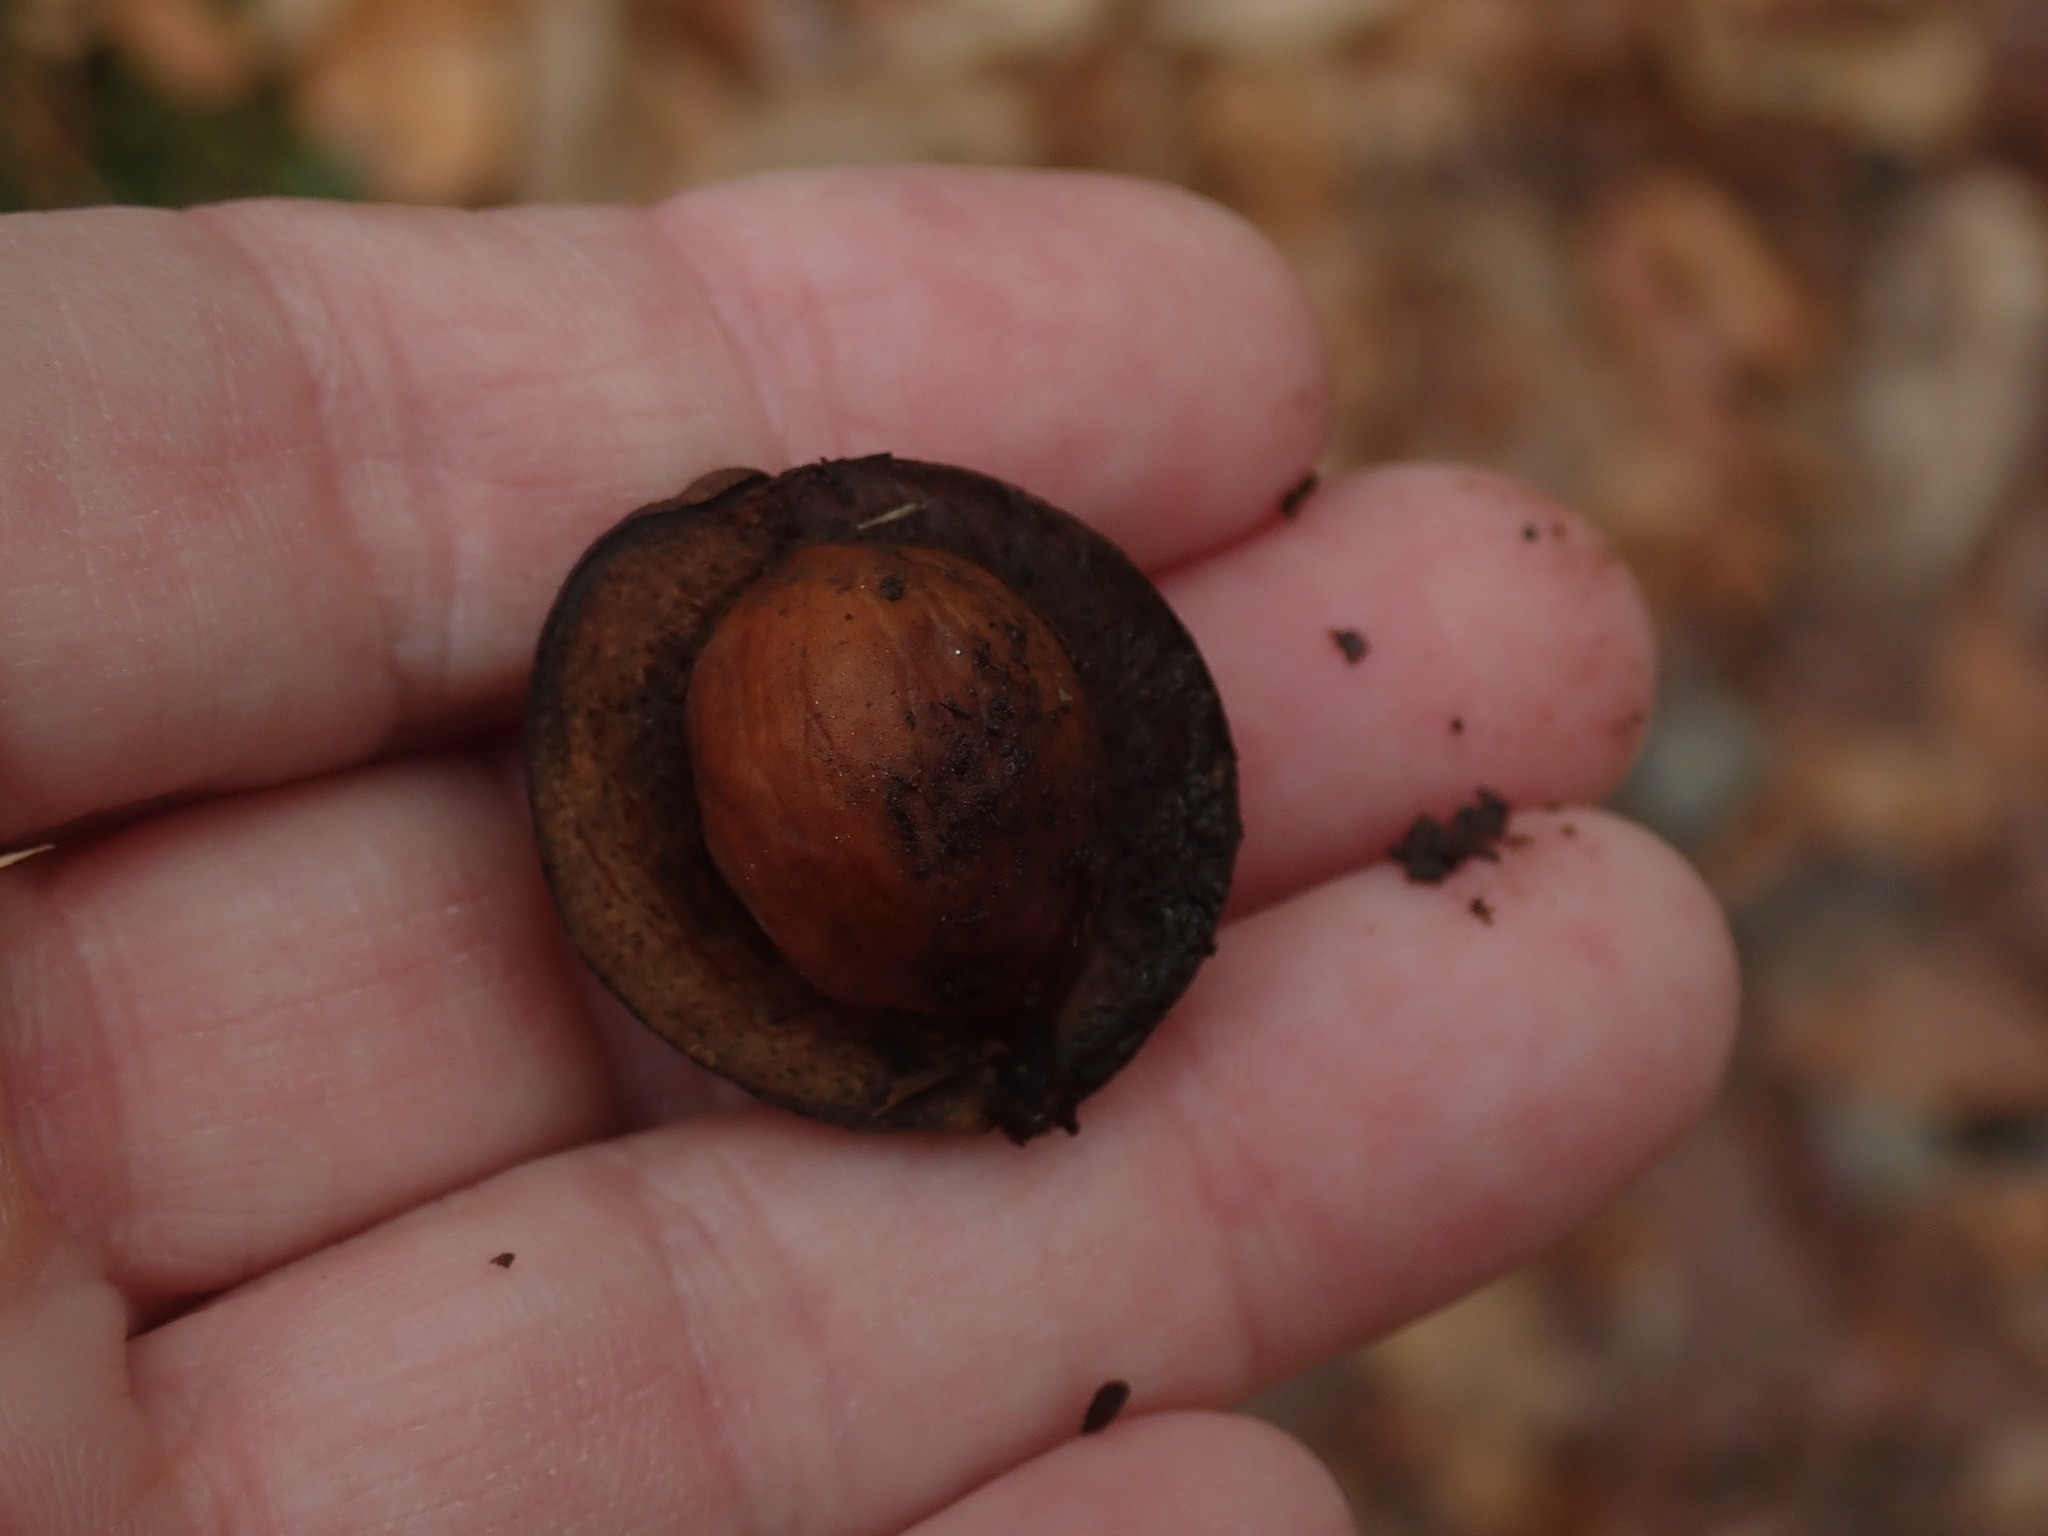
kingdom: Plantae
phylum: Tracheophyta
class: Magnoliopsida
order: Fagales
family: Juglandaceae
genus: Carya
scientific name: Carya ovata
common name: Shagbark hickory
